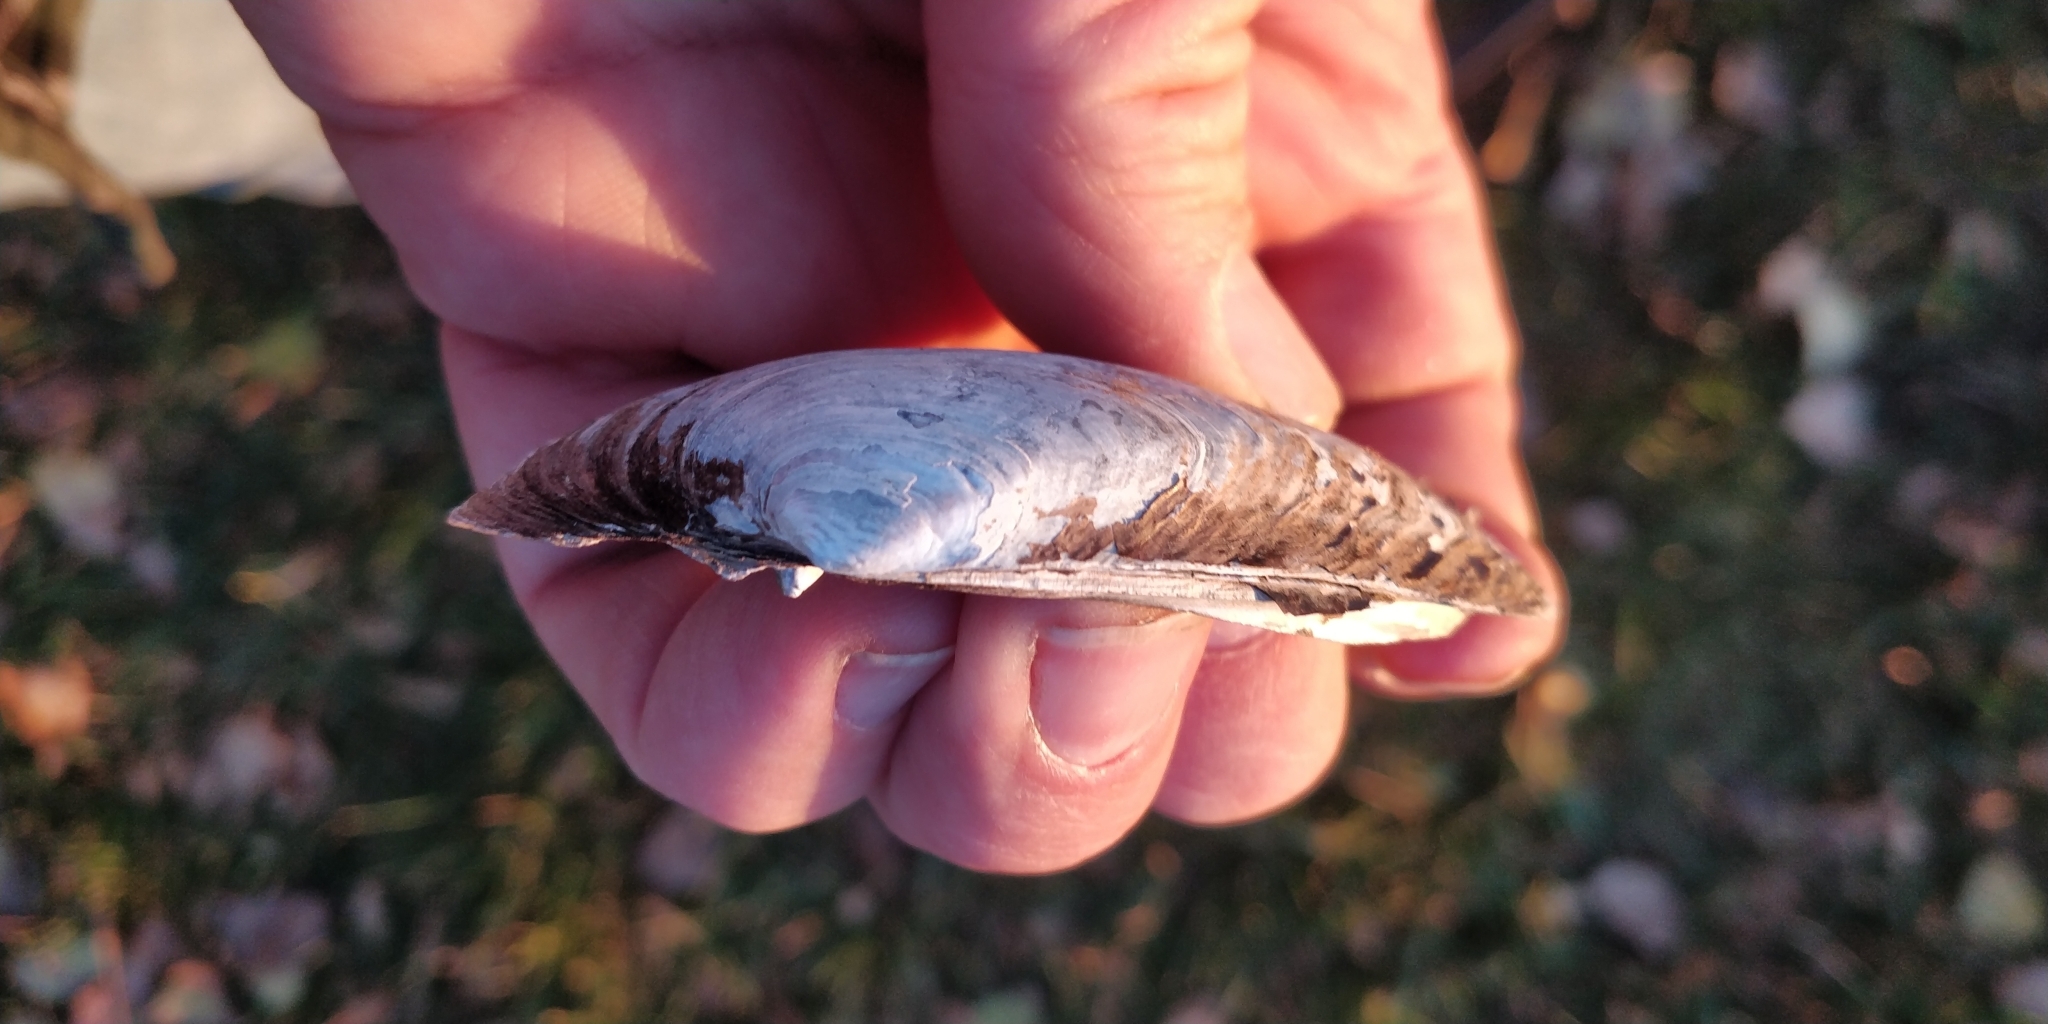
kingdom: Animalia
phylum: Mollusca
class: Bivalvia
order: Unionida
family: Unionidae
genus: Lampsilis
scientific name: Lampsilis siliquoidea
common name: Fatmucket
